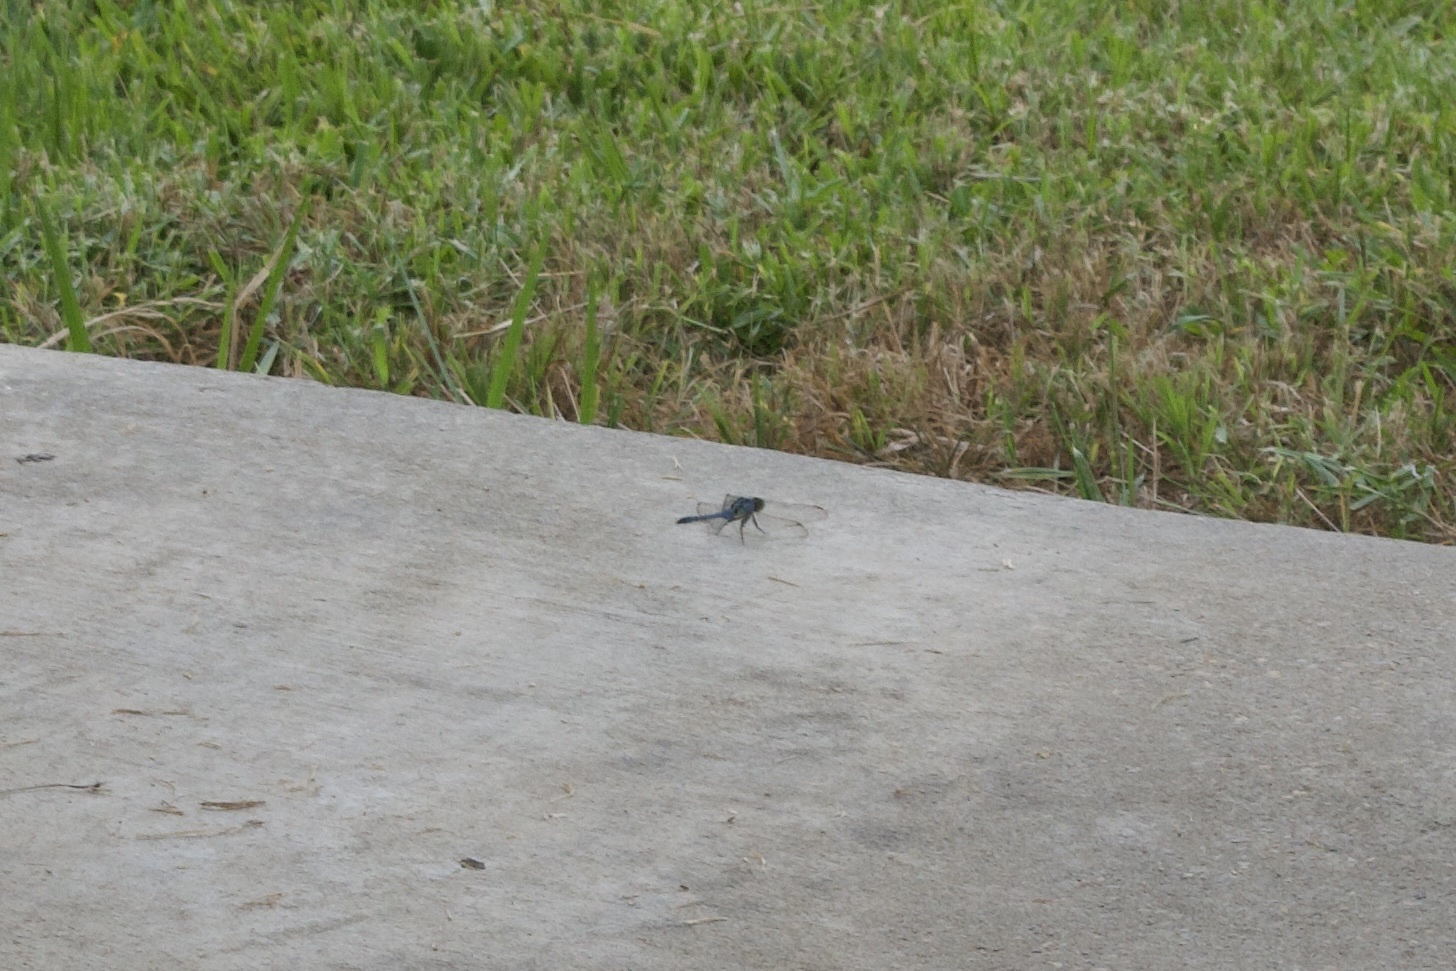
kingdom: Animalia
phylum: Arthropoda
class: Insecta
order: Odonata
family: Libellulidae
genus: Erythemis
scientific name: Erythemis simplicicollis
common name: Eastern pondhawk
